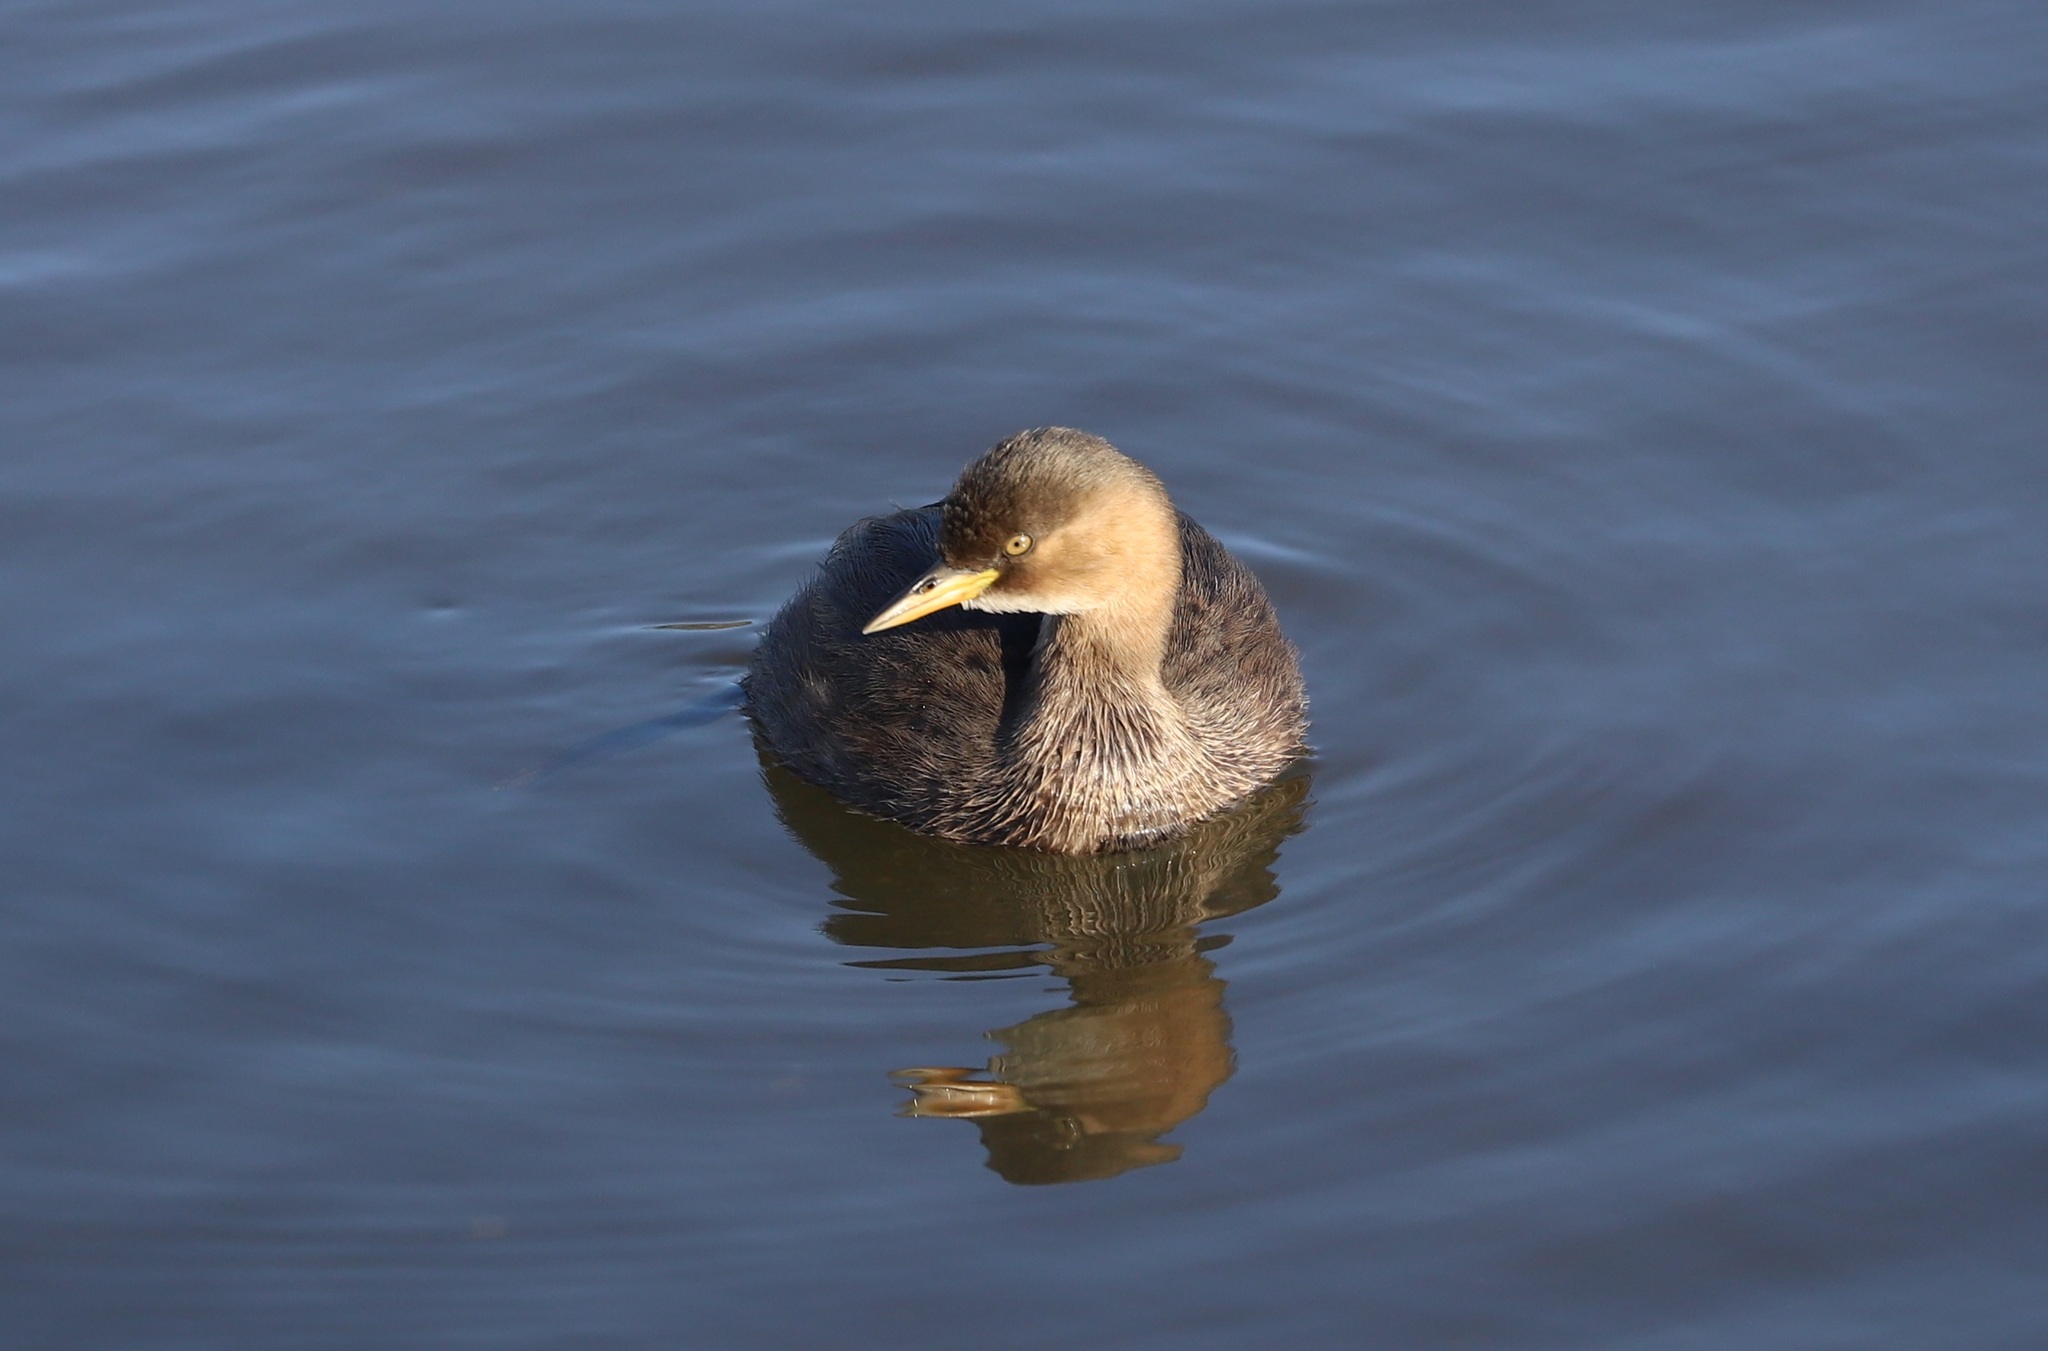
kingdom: Animalia
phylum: Chordata
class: Aves
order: Podicipediformes
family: Podicipedidae
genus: Tachybaptus
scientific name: Tachybaptus ruficollis
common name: Little grebe
